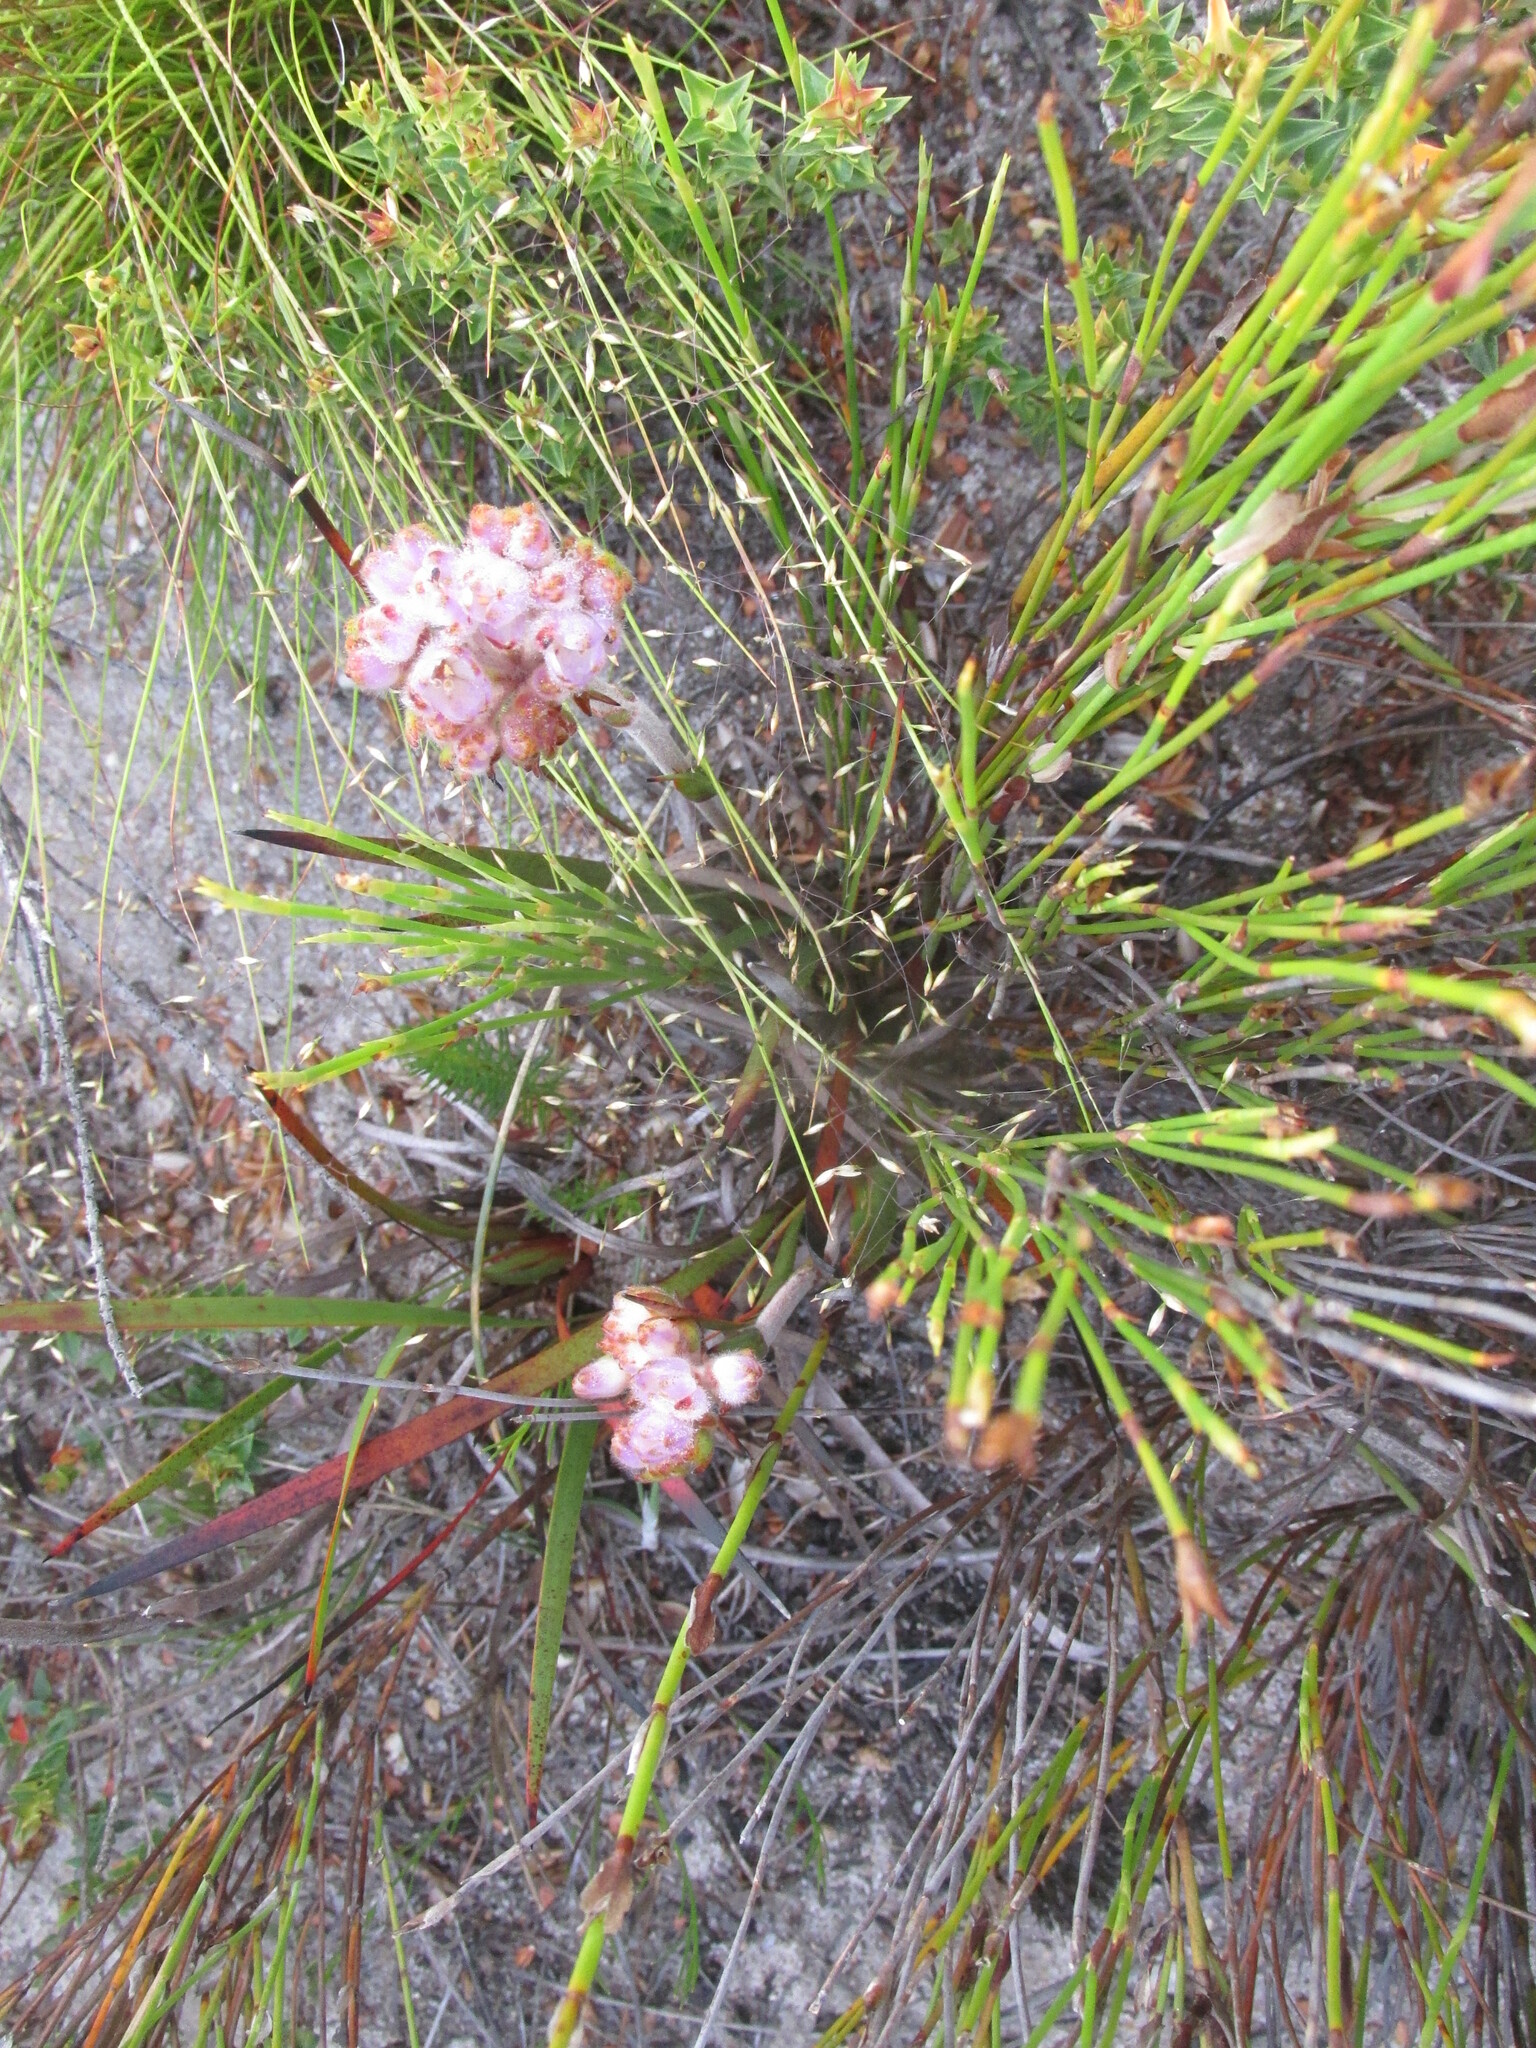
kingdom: Plantae
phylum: Tracheophyta
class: Liliopsida
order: Commelinales
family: Haemodoraceae
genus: Dilatris
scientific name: Dilatris pillansii
